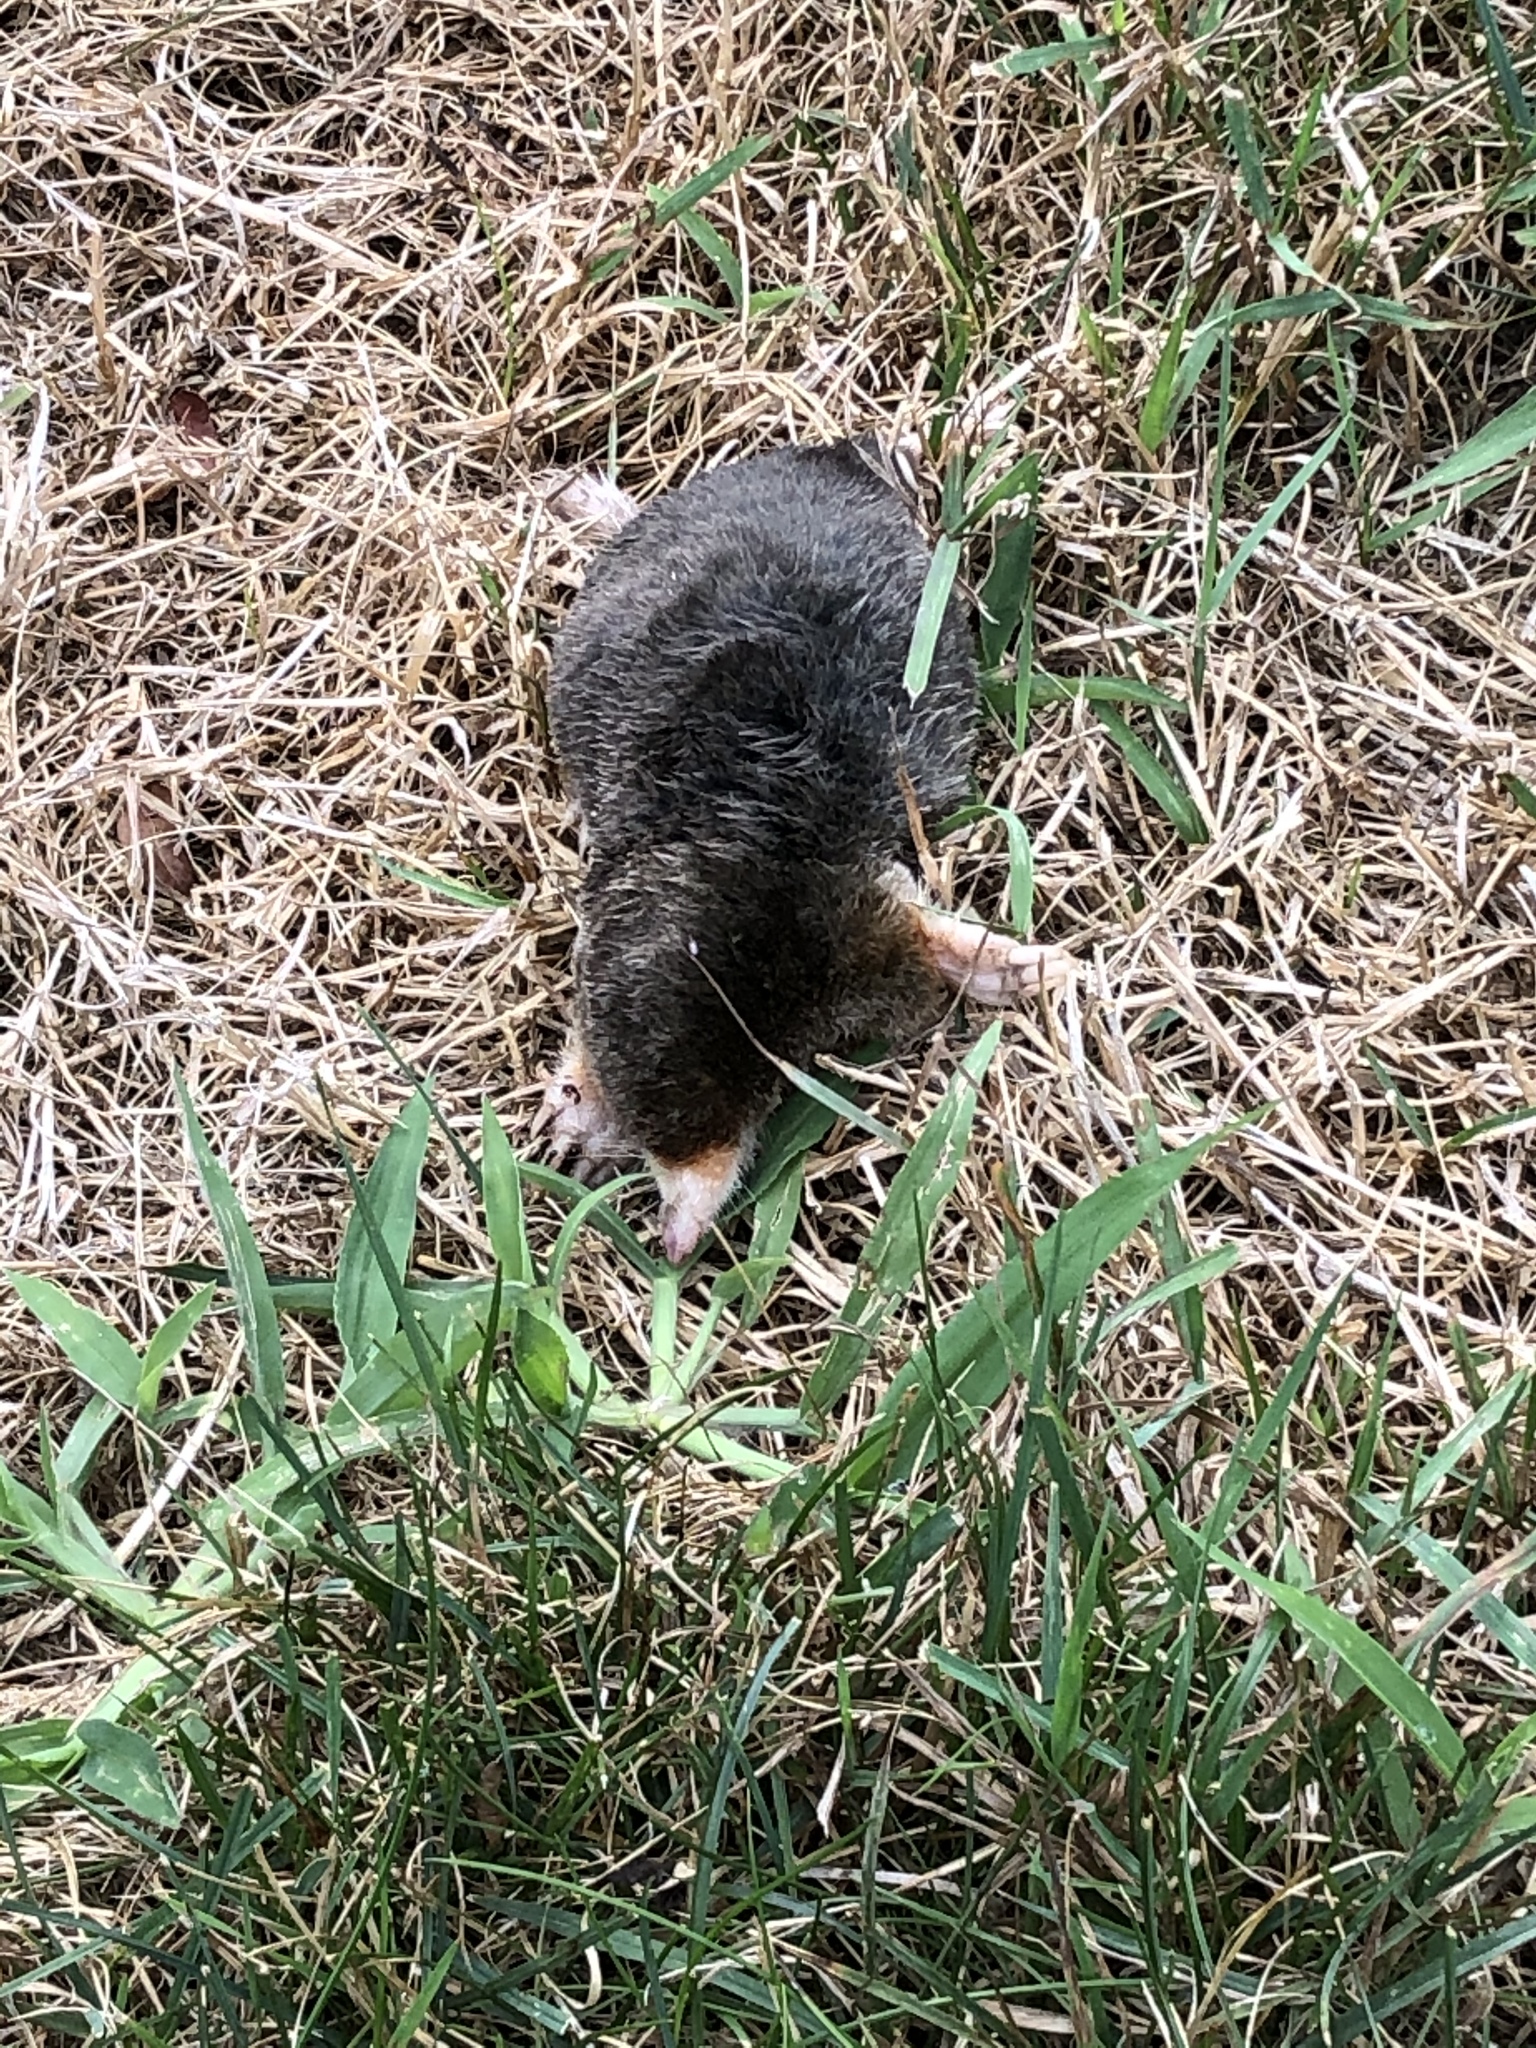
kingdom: Animalia
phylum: Chordata
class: Mammalia
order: Soricomorpha
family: Talpidae
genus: Parascalops
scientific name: Parascalops breweri
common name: Hairy-tailed mole
